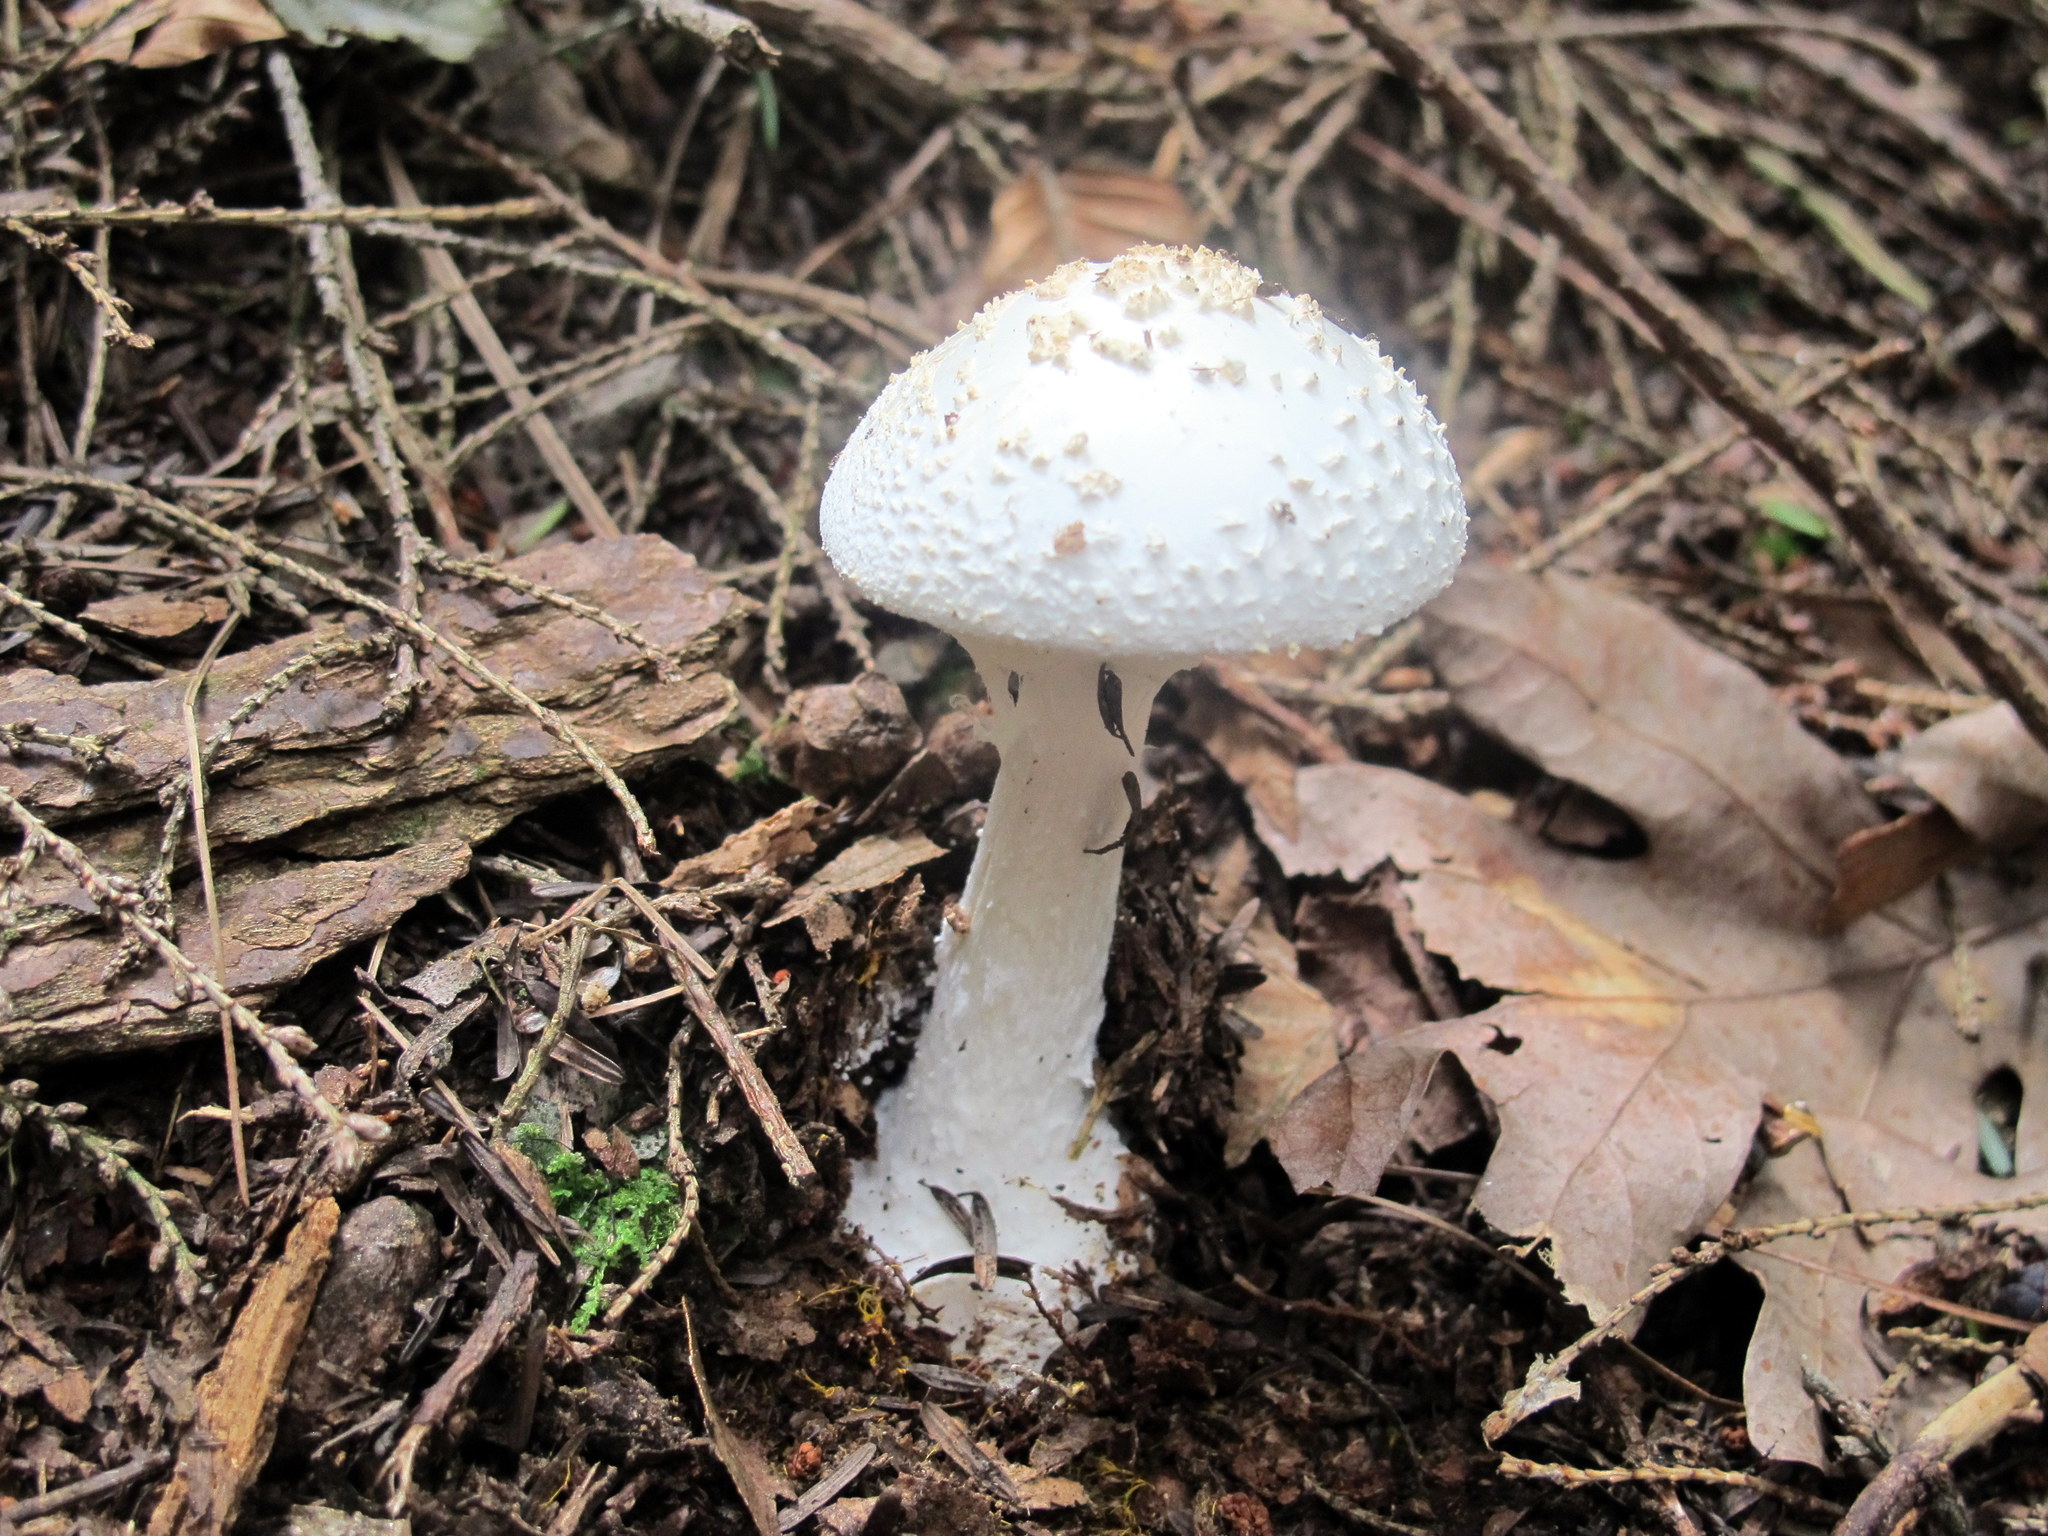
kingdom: Fungi
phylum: Basidiomycota
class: Agaricomycetes
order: Agaricales
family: Amanitaceae
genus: Amanita
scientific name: Amanita abrupta
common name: American abrupt-bulbed lepidella
